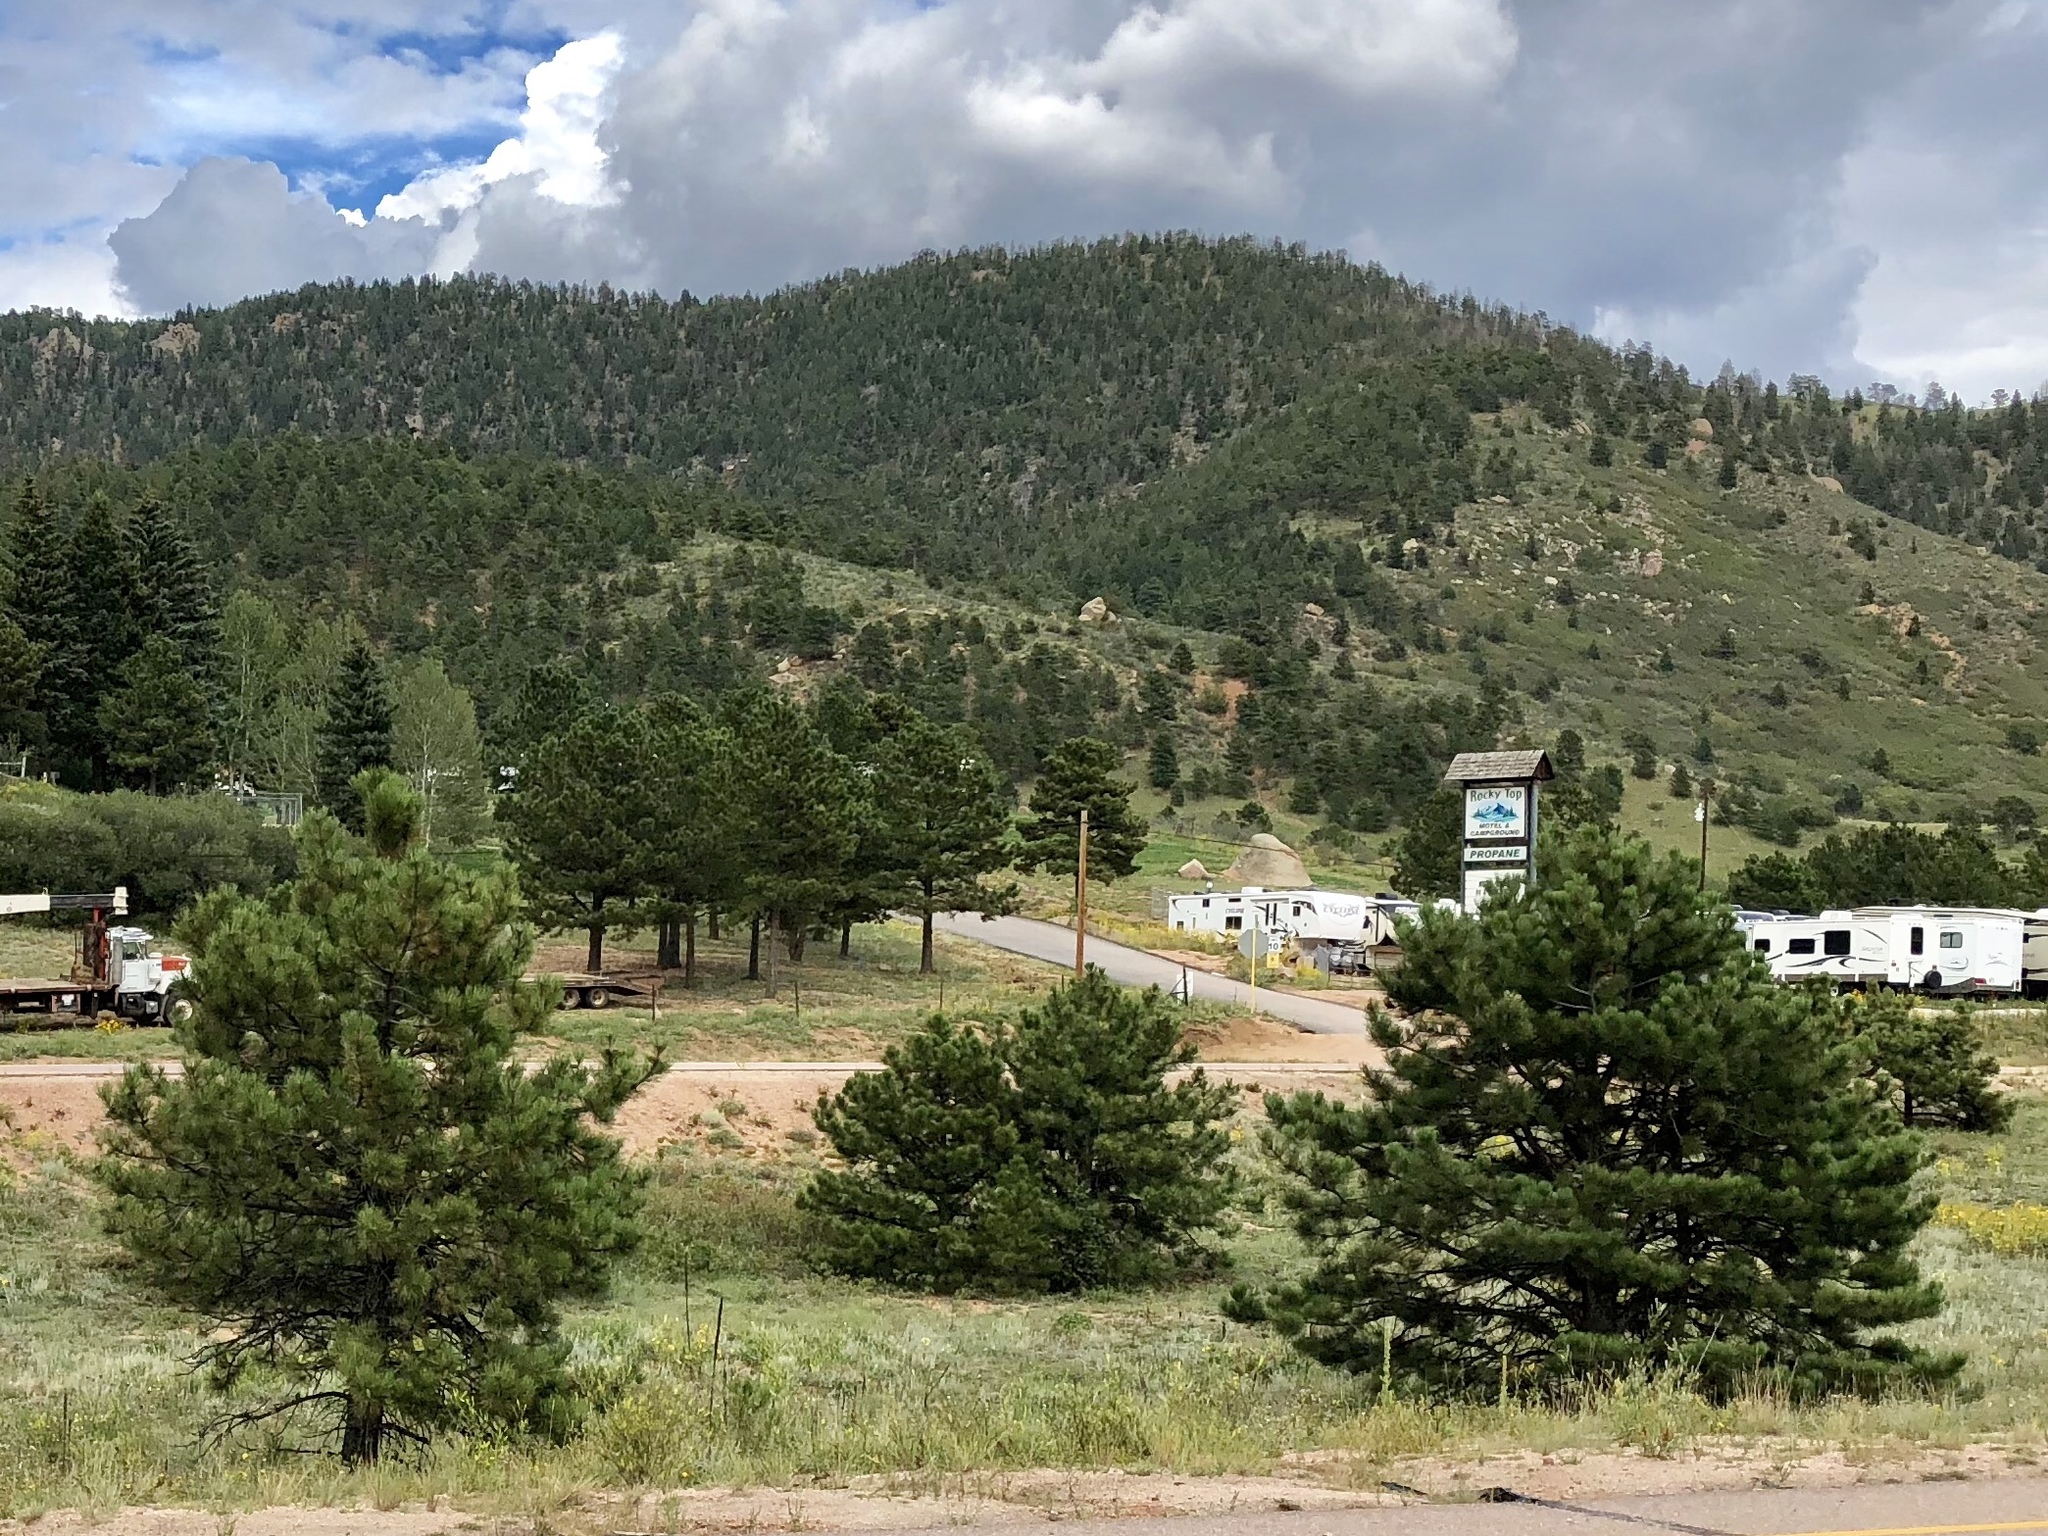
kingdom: Plantae
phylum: Tracheophyta
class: Pinopsida
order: Pinales
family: Pinaceae
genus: Pinus
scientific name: Pinus ponderosa
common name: Western yellow-pine
